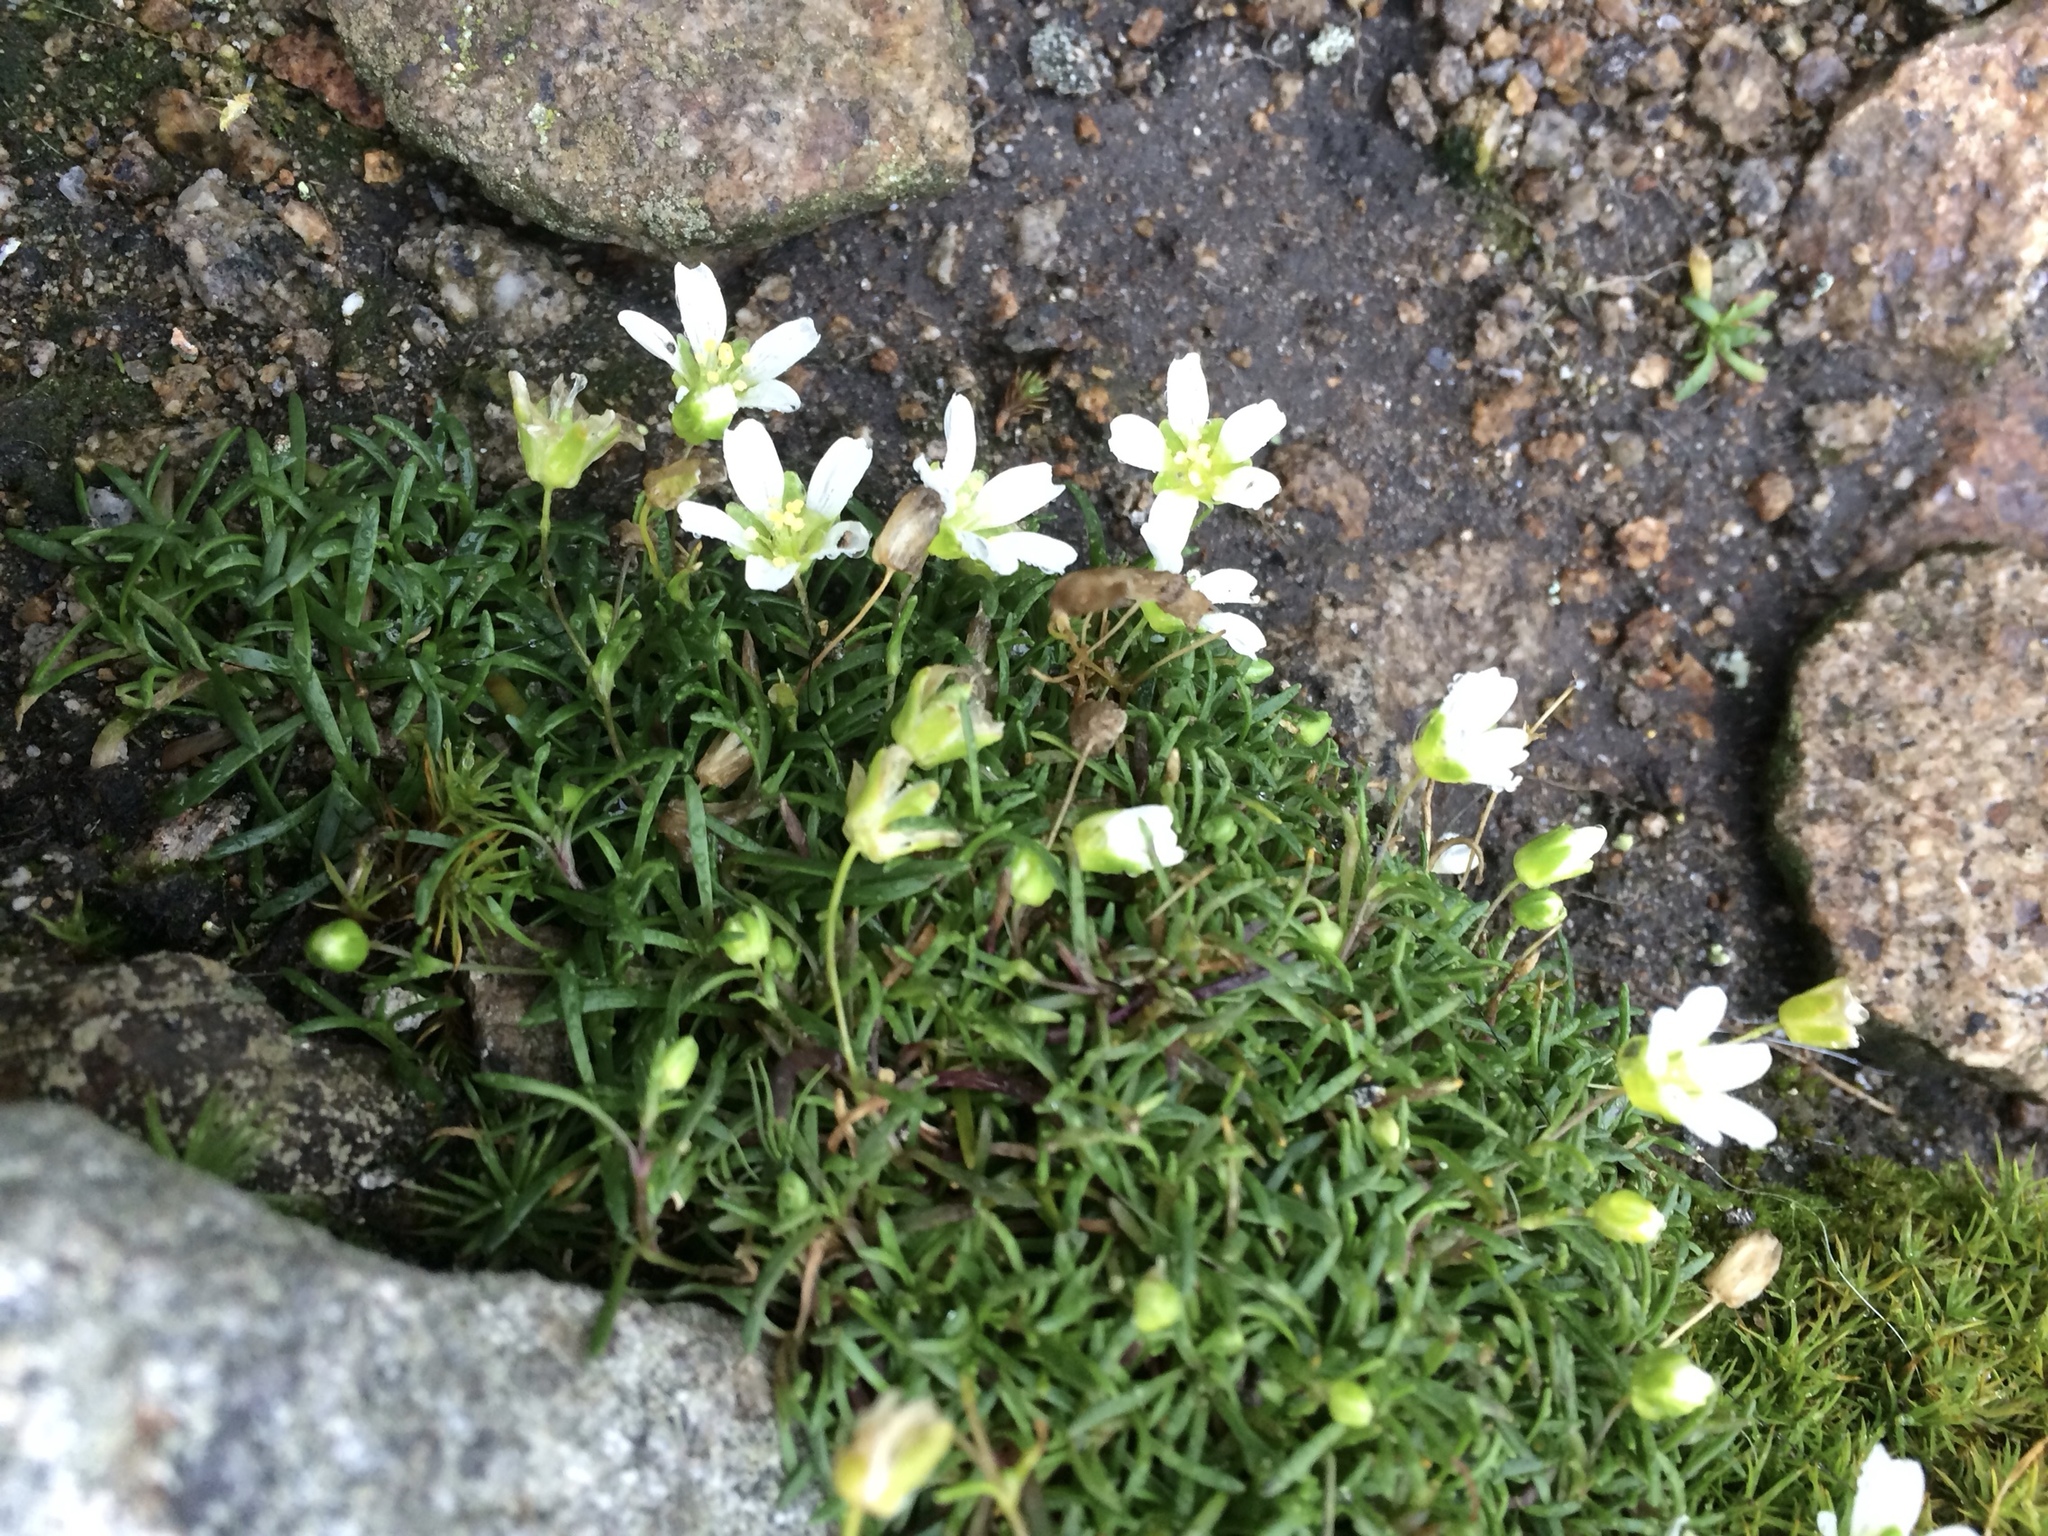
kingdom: Plantae
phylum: Tracheophyta
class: Magnoliopsida
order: Caryophyllales
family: Caryophyllaceae
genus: Geocarpon
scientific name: Geocarpon groenlandicum
